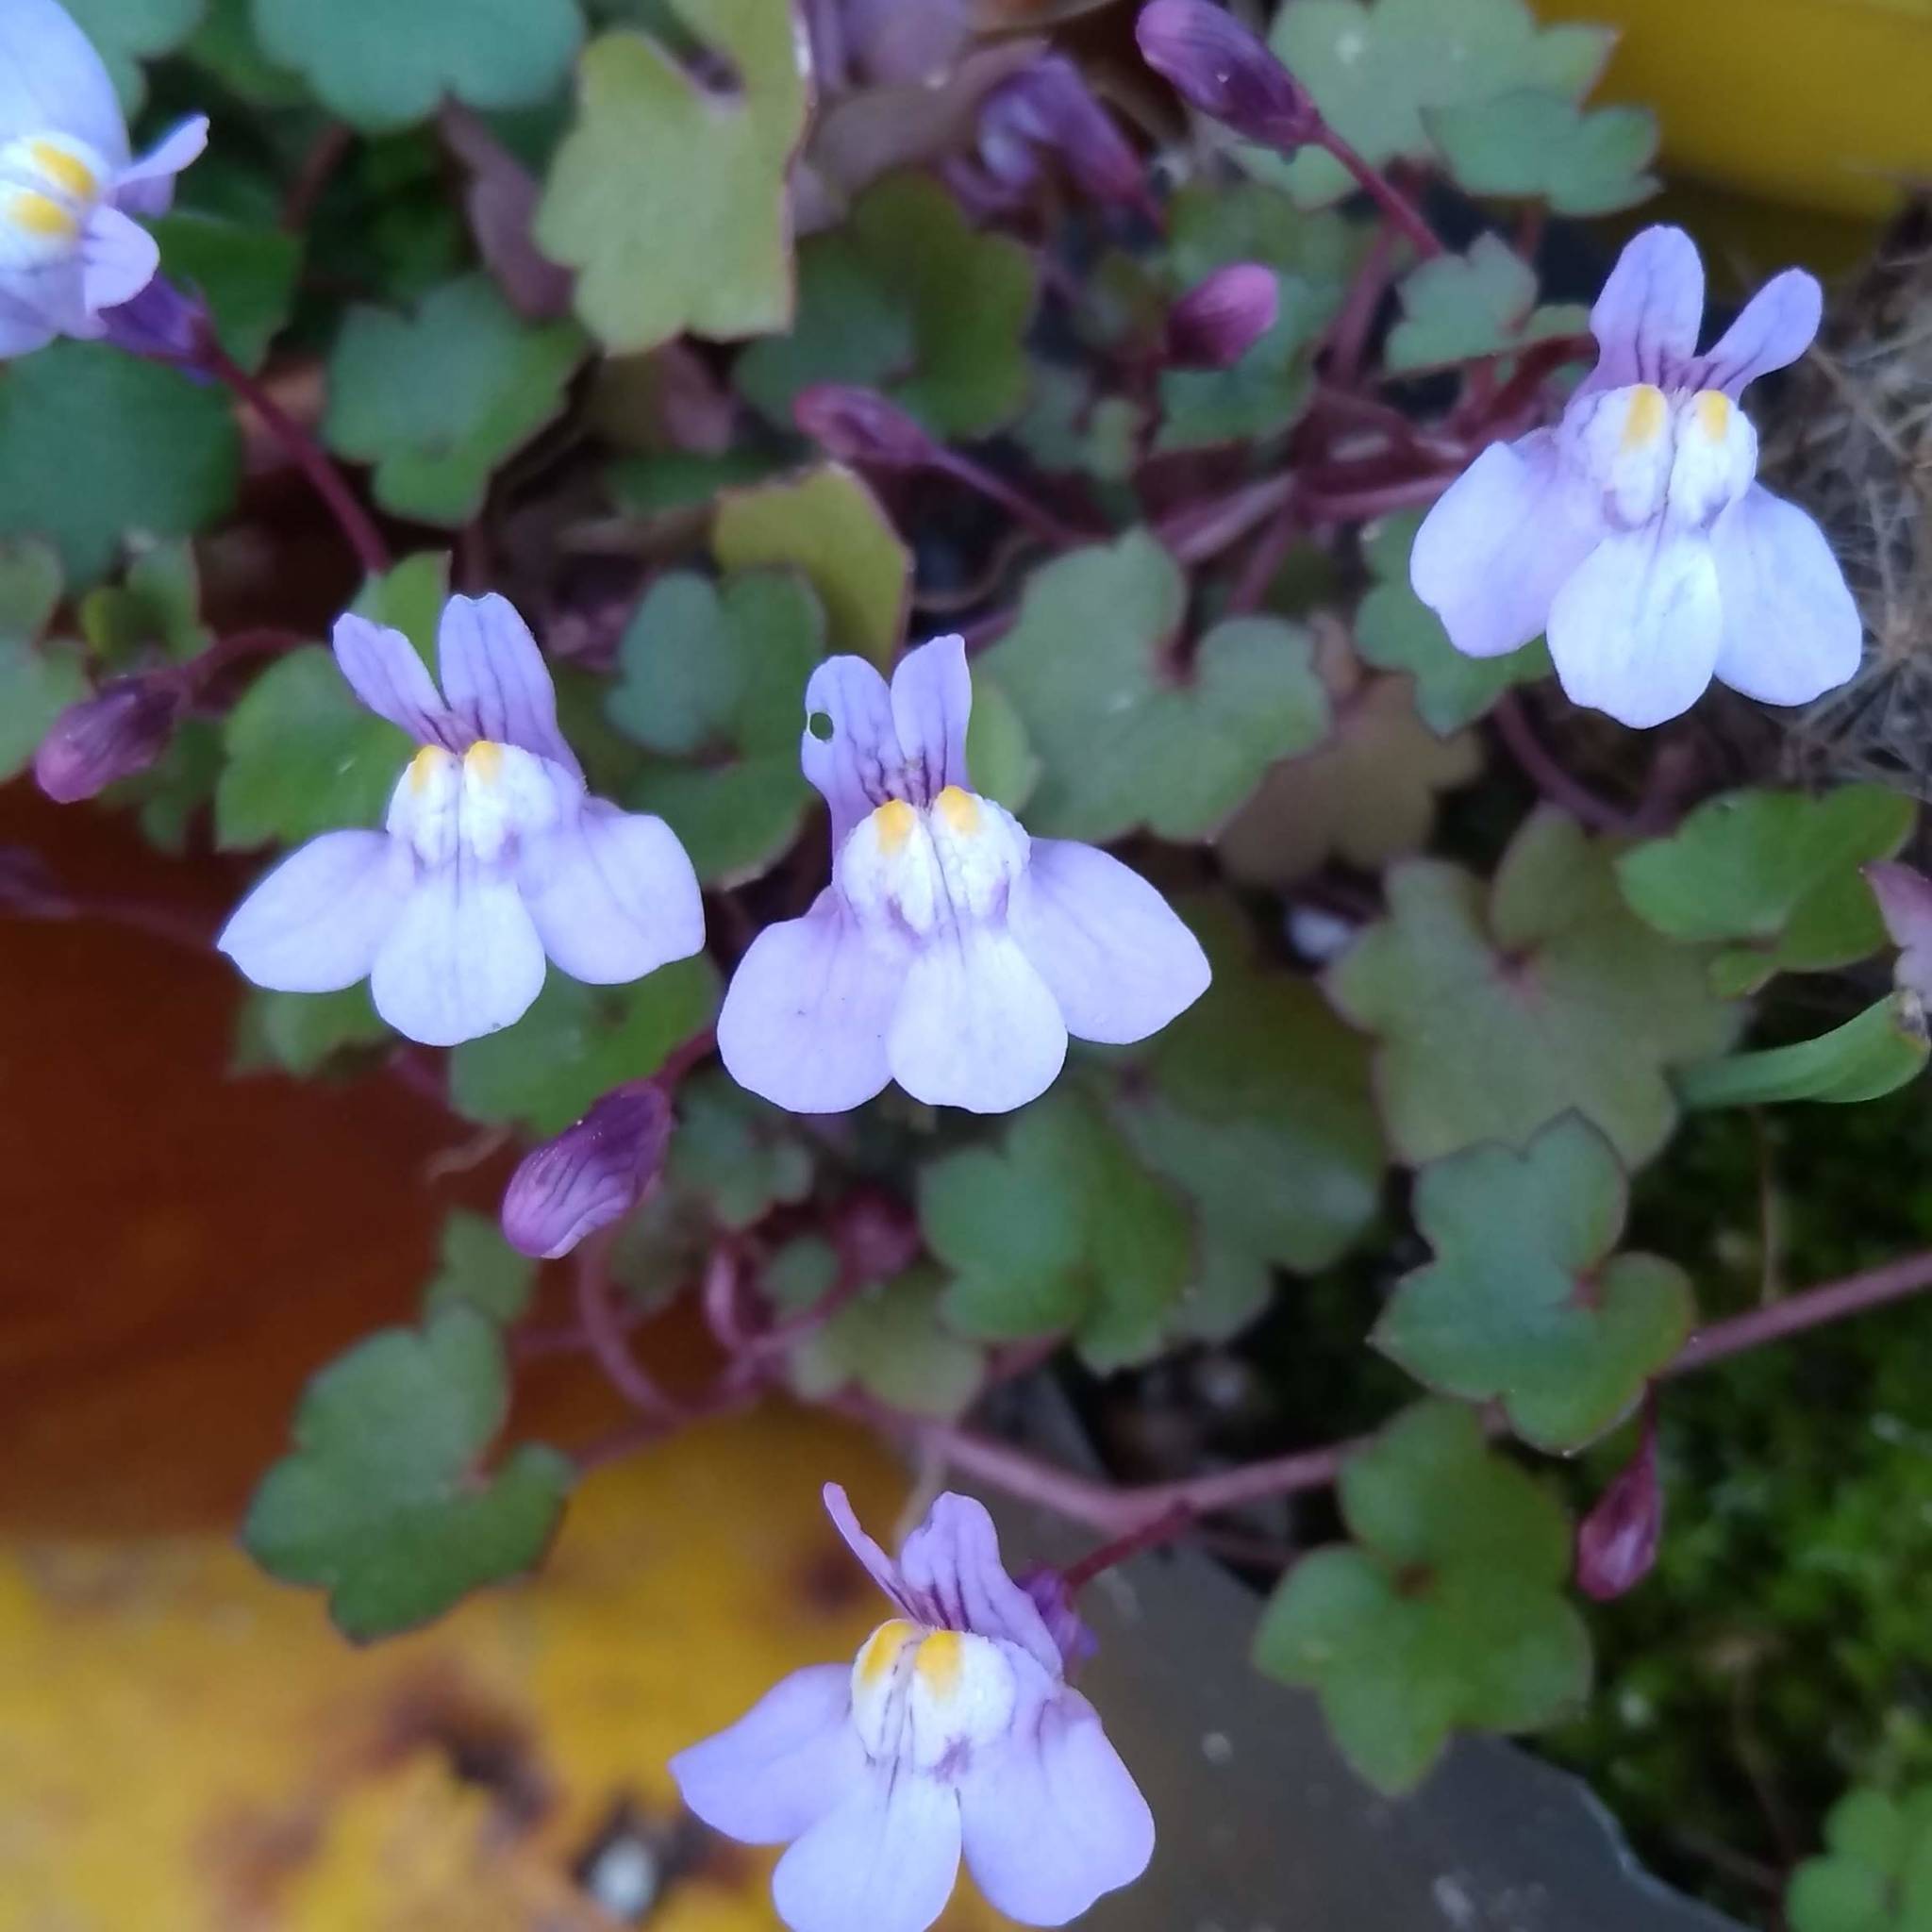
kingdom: Plantae
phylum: Tracheophyta
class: Magnoliopsida
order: Lamiales
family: Plantaginaceae
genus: Cymbalaria
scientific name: Cymbalaria muralis
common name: Ivy-leaved toadflax
